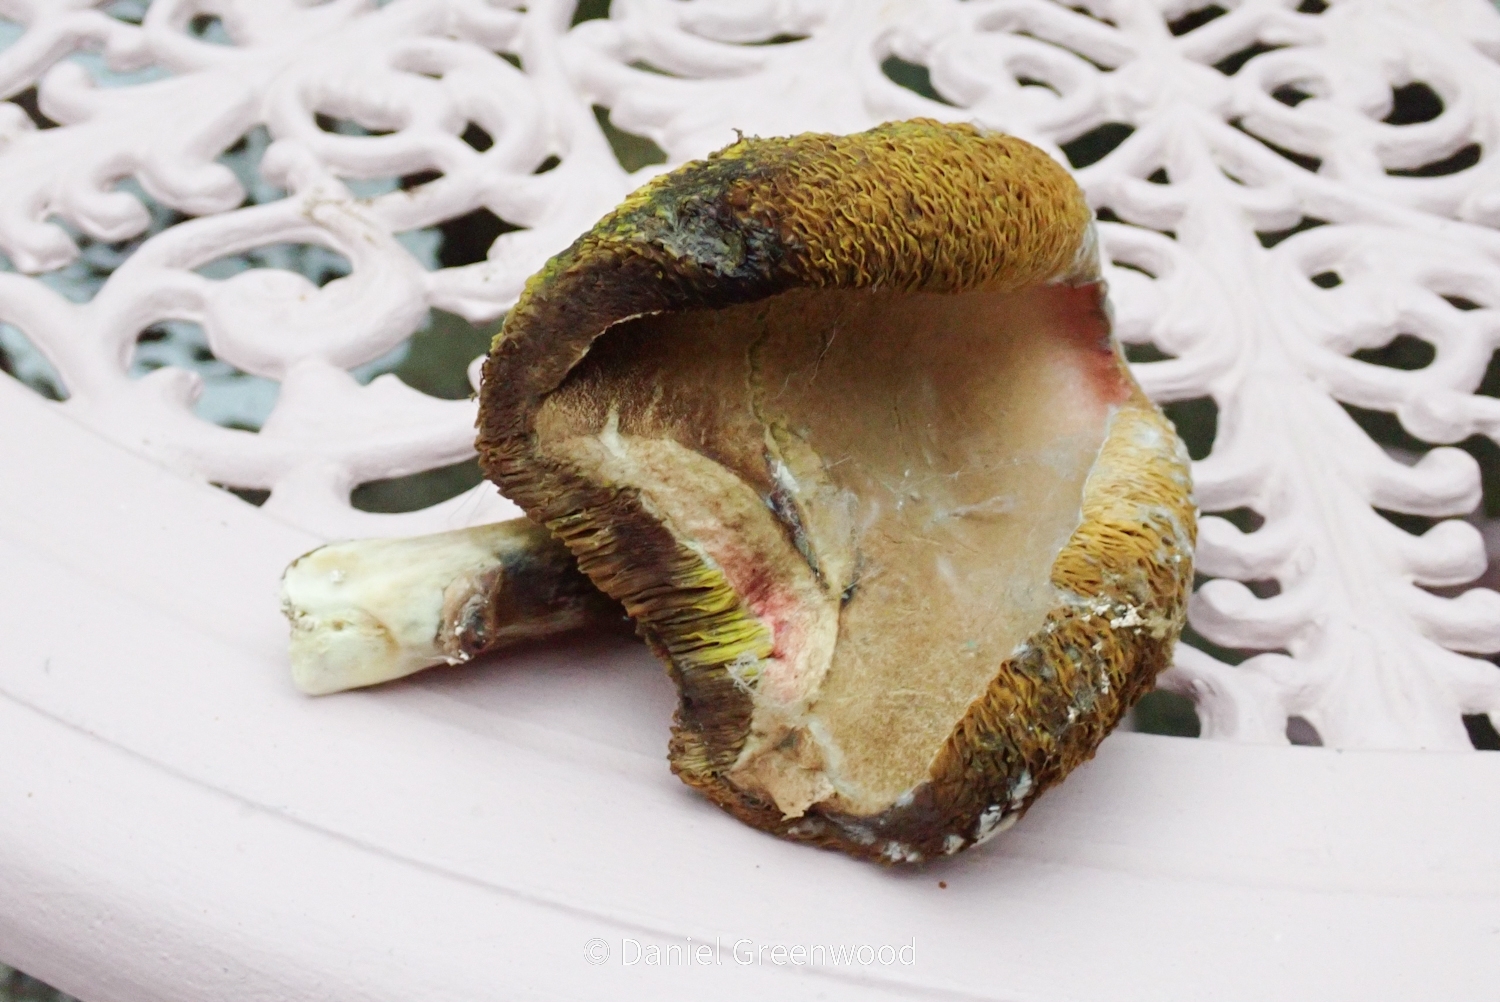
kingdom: Fungi
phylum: Basidiomycota
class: Agaricomycetes
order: Boletales
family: Boletaceae
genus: Xerocomellus
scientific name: Xerocomellus chrysenteron
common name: Red-cracking bolete
